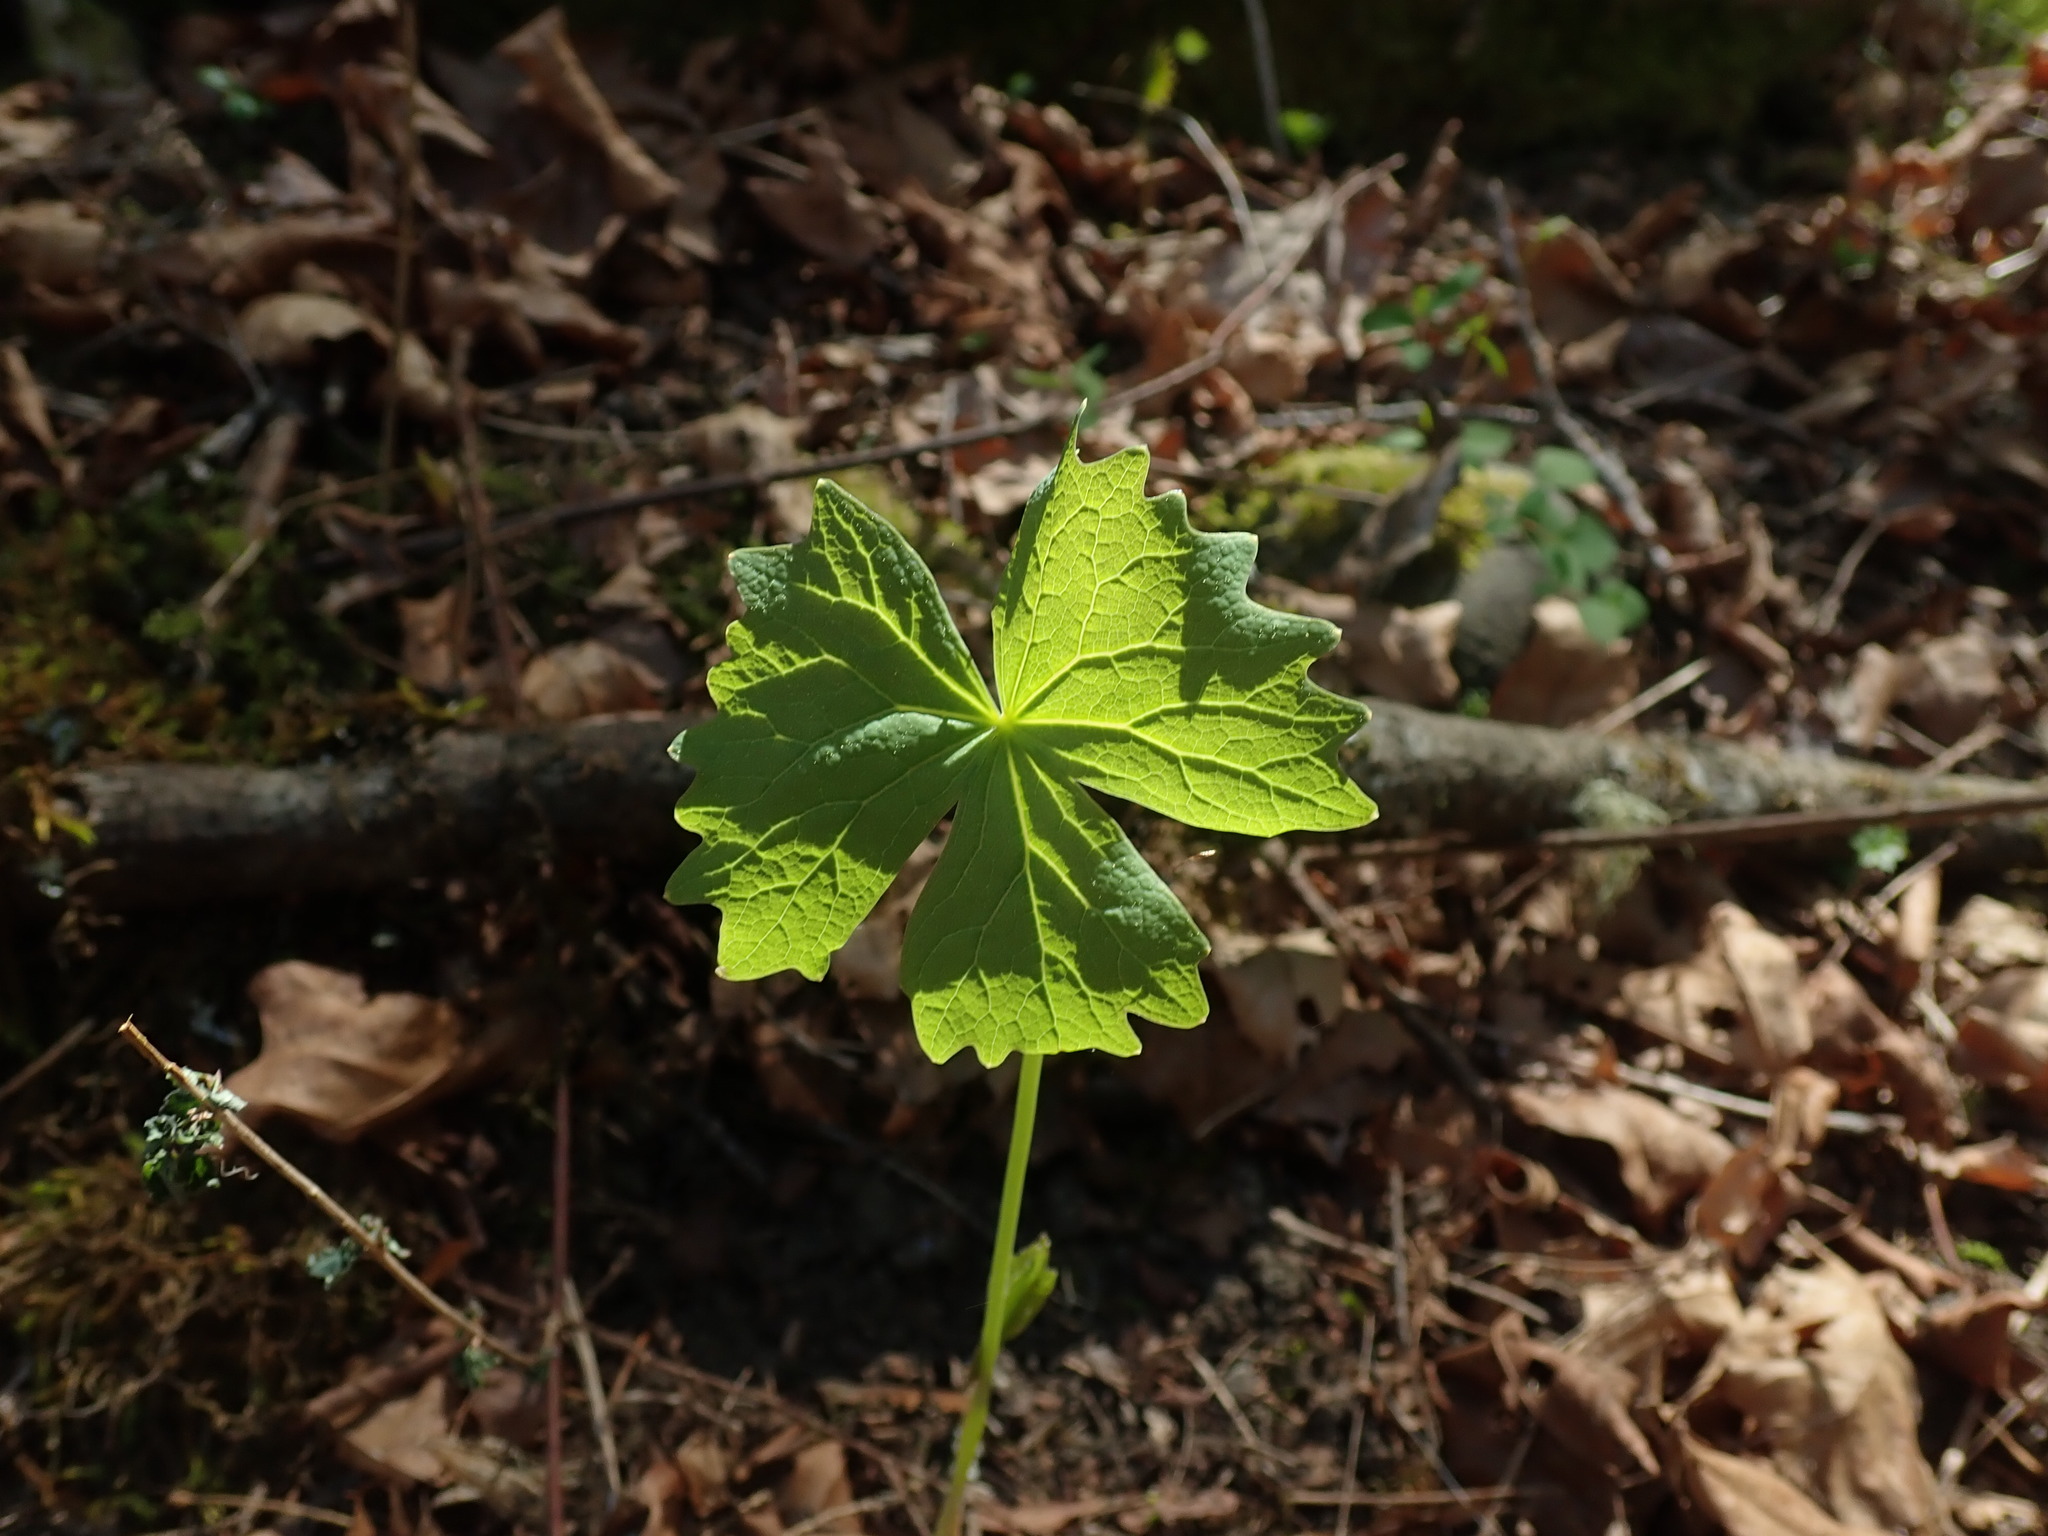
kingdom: Plantae
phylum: Tracheophyta
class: Magnoliopsida
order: Ranunculales
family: Berberidaceae
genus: Achlys
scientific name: Achlys triphylla
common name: Vanilla-leaf
